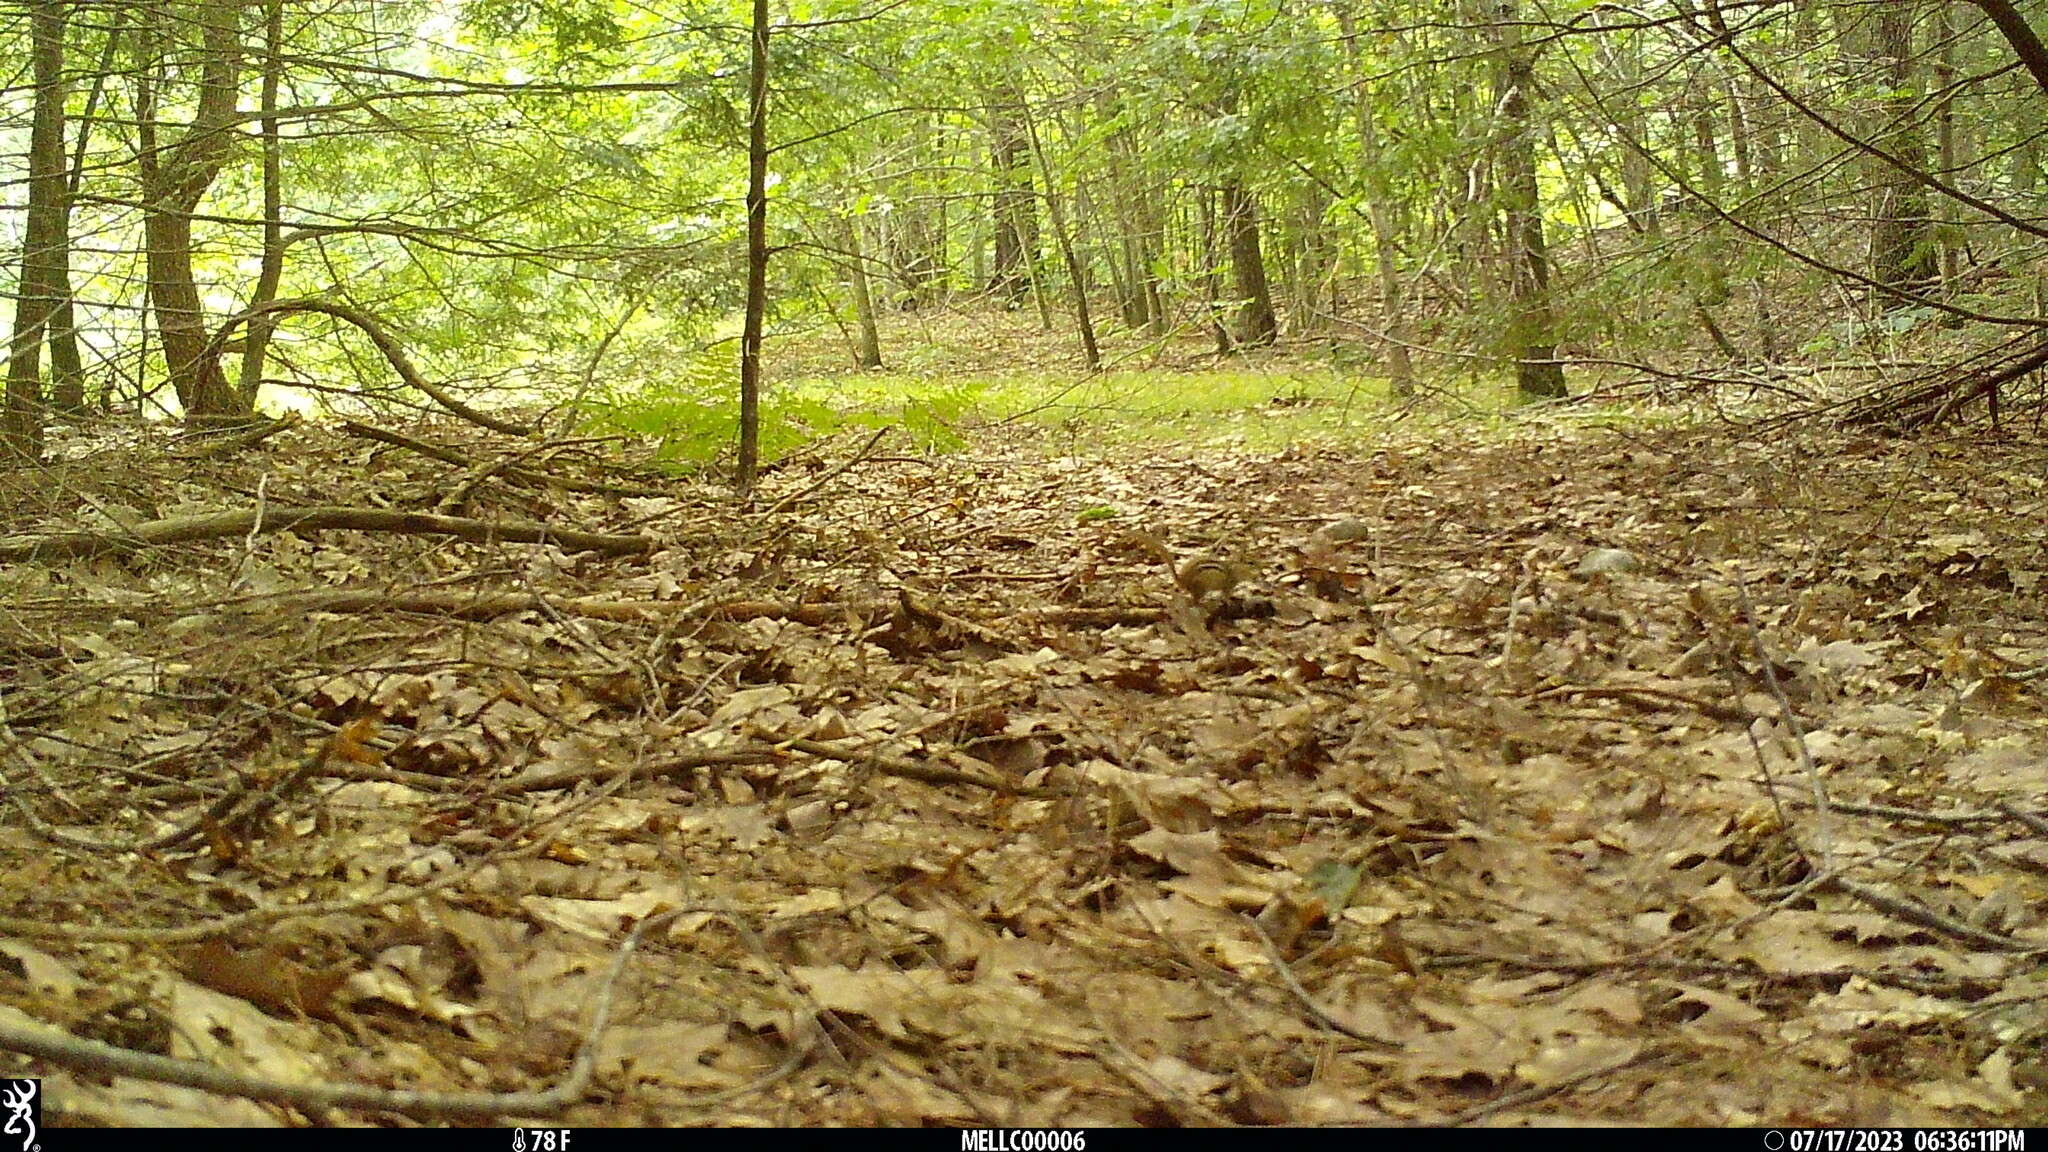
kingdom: Animalia
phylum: Chordata
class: Mammalia
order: Rodentia
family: Sciuridae
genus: Tamias
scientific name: Tamias striatus
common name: Eastern chipmunk
